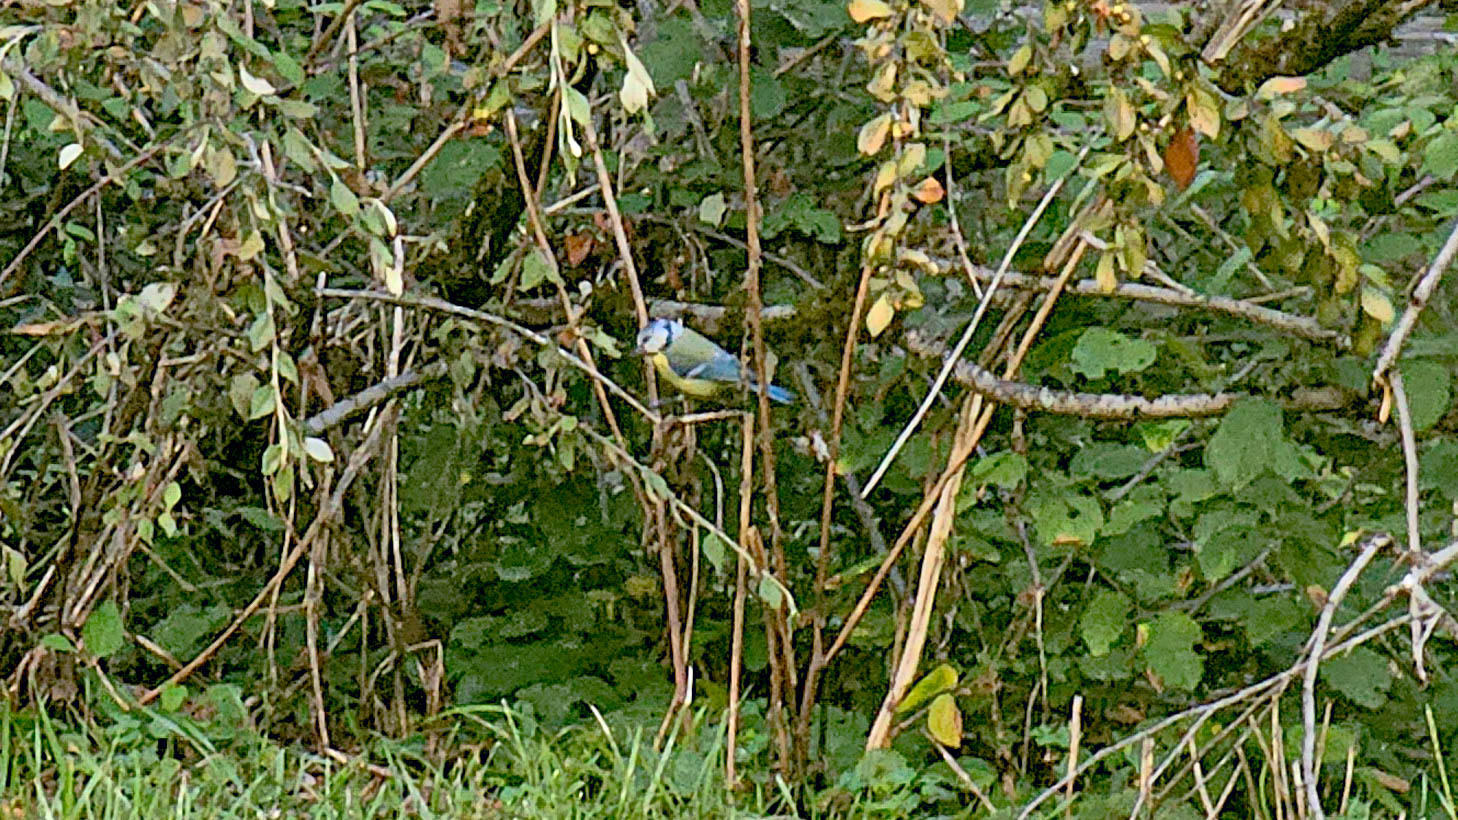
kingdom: Animalia
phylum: Chordata
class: Aves
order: Passeriformes
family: Paridae
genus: Cyanistes
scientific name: Cyanistes caeruleus
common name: Eurasian blue tit
